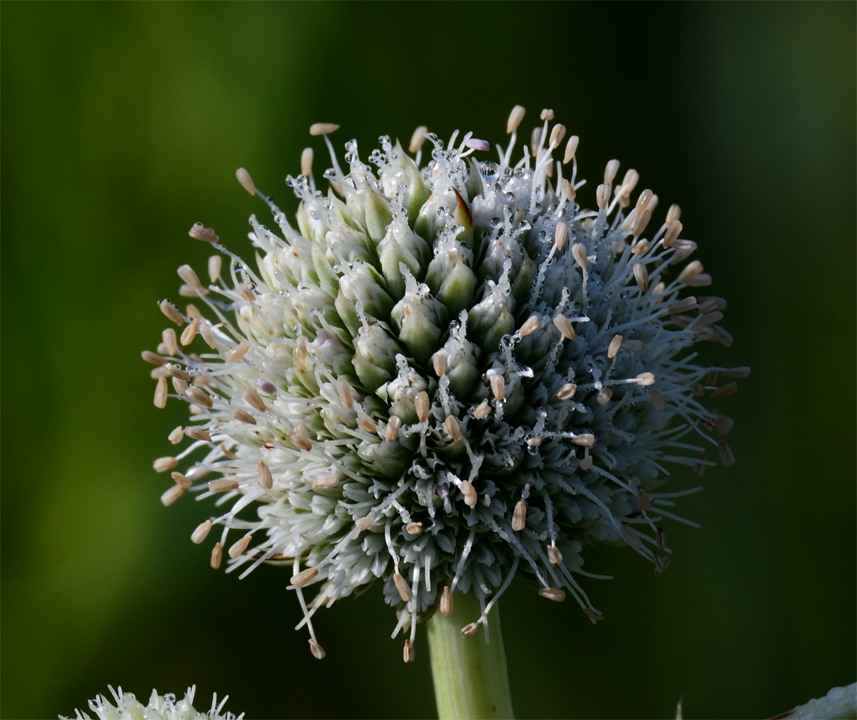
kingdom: Plantae
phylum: Tracheophyta
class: Magnoliopsida
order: Apiales
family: Apiaceae
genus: Eryngium
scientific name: Eryngium yuccifolium
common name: Button eryngo
